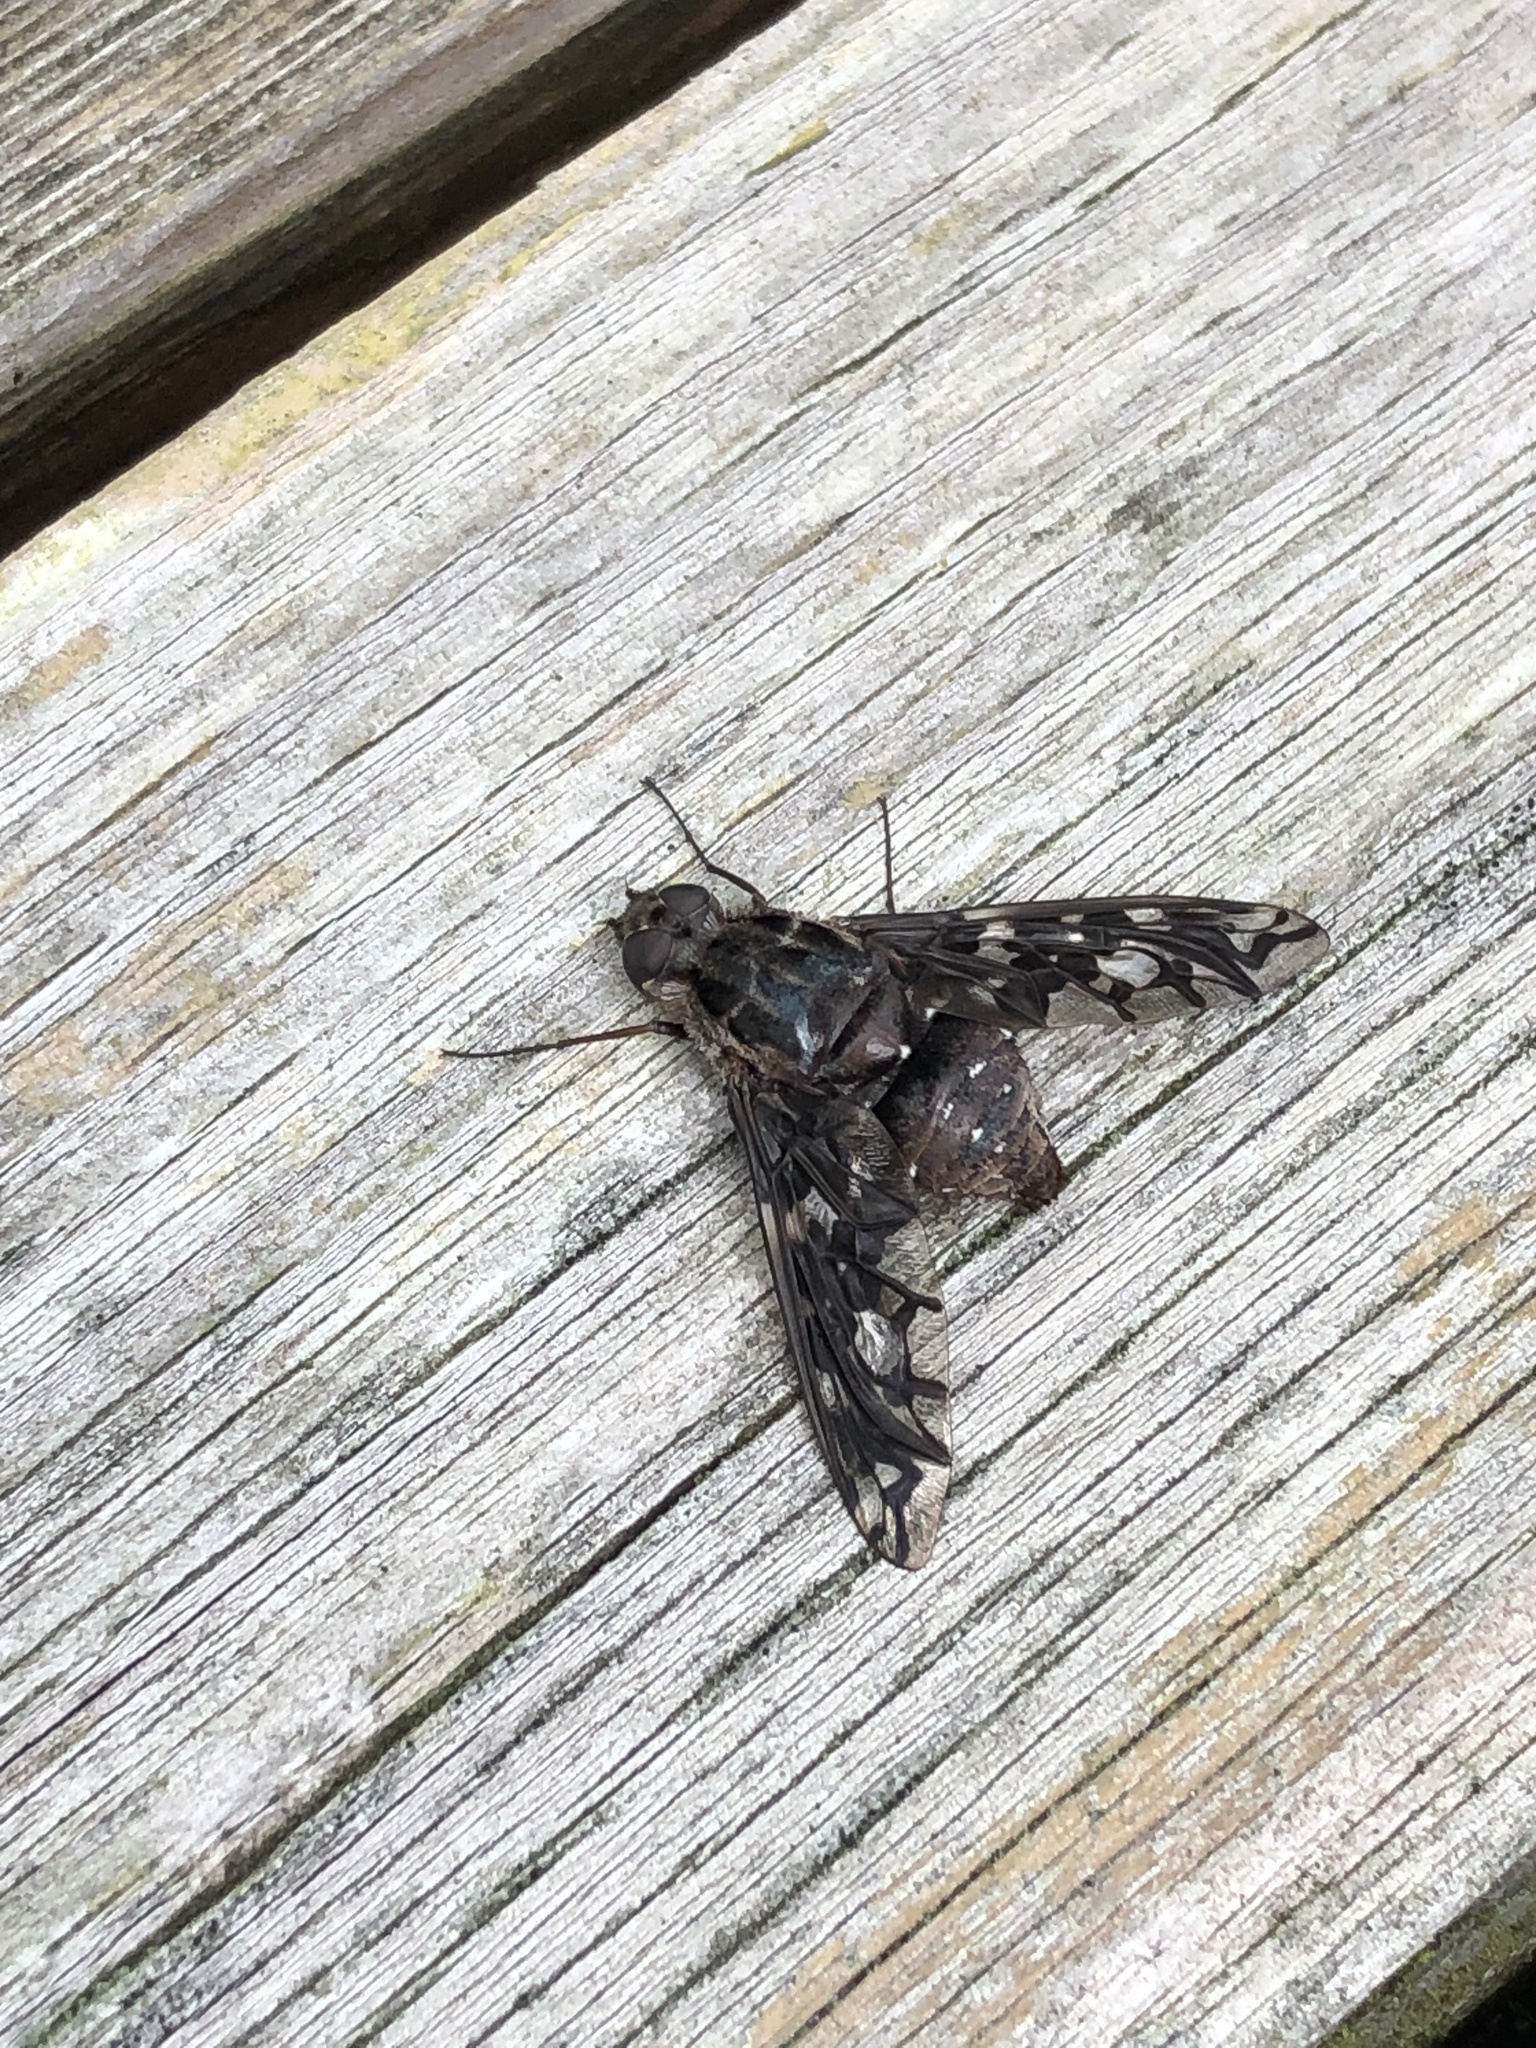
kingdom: Animalia
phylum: Arthropoda
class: Insecta
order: Diptera
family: Bombyliidae
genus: Xenox
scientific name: Xenox tigrinus
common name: Tiger bee fly
